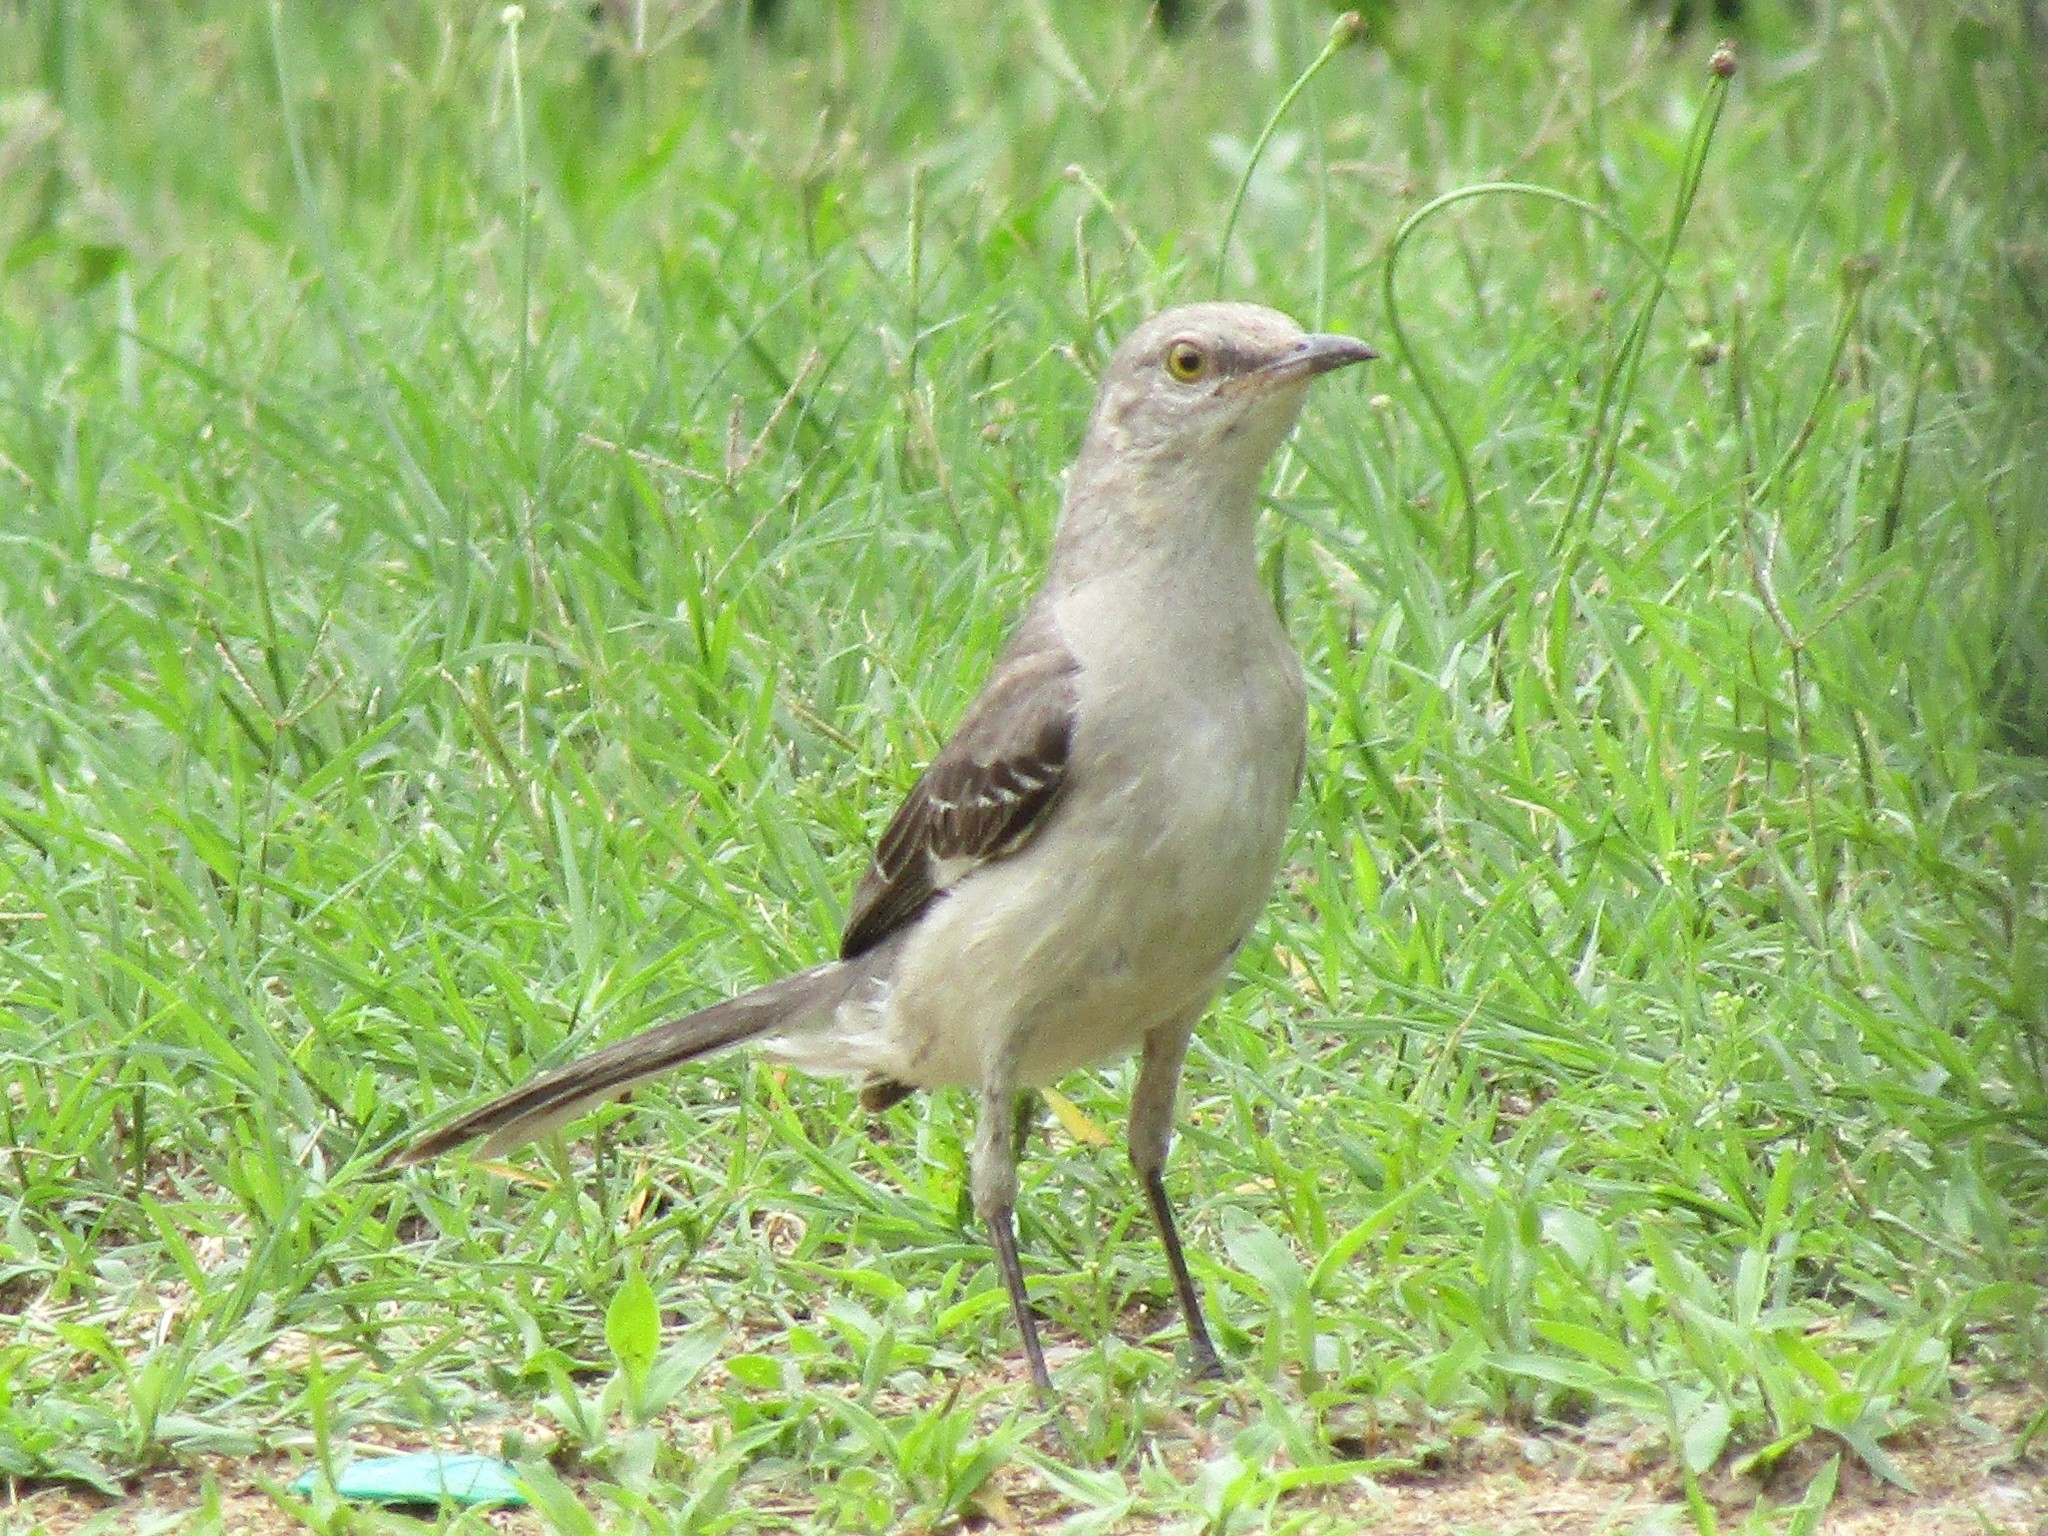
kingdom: Animalia
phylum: Chordata
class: Aves
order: Passeriformes
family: Mimidae
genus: Mimus
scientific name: Mimus polyglottos
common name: Northern mockingbird
